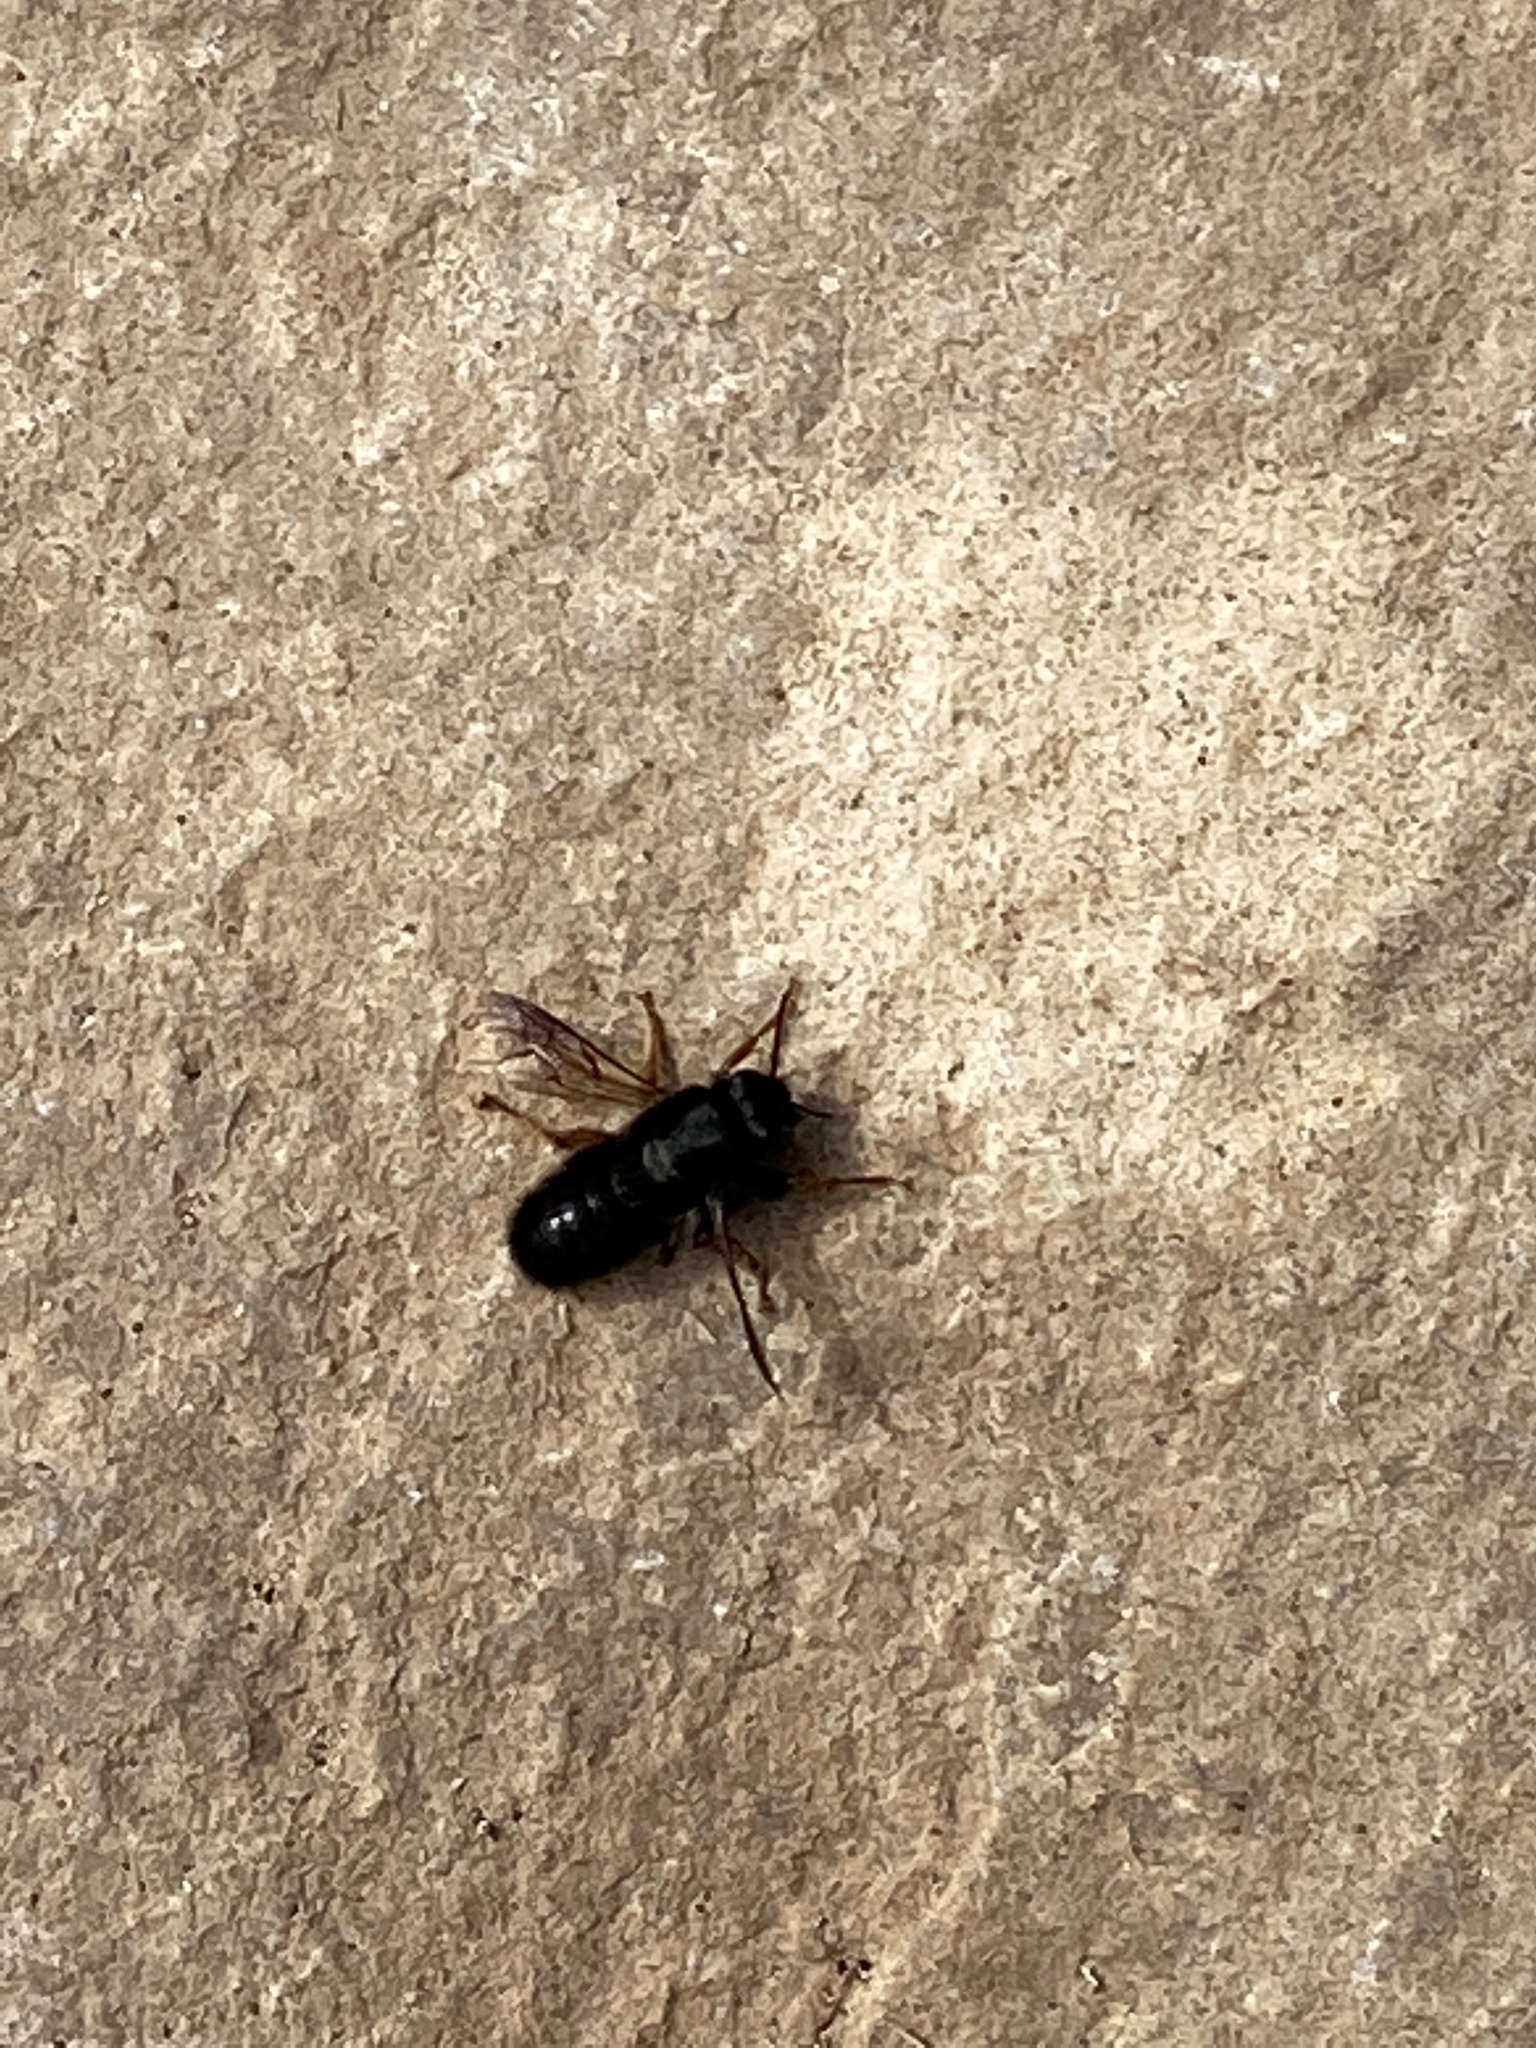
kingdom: Animalia
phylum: Arthropoda
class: Insecta
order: Hymenoptera
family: Megachilidae
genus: Megachile
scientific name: Megachile sicula
